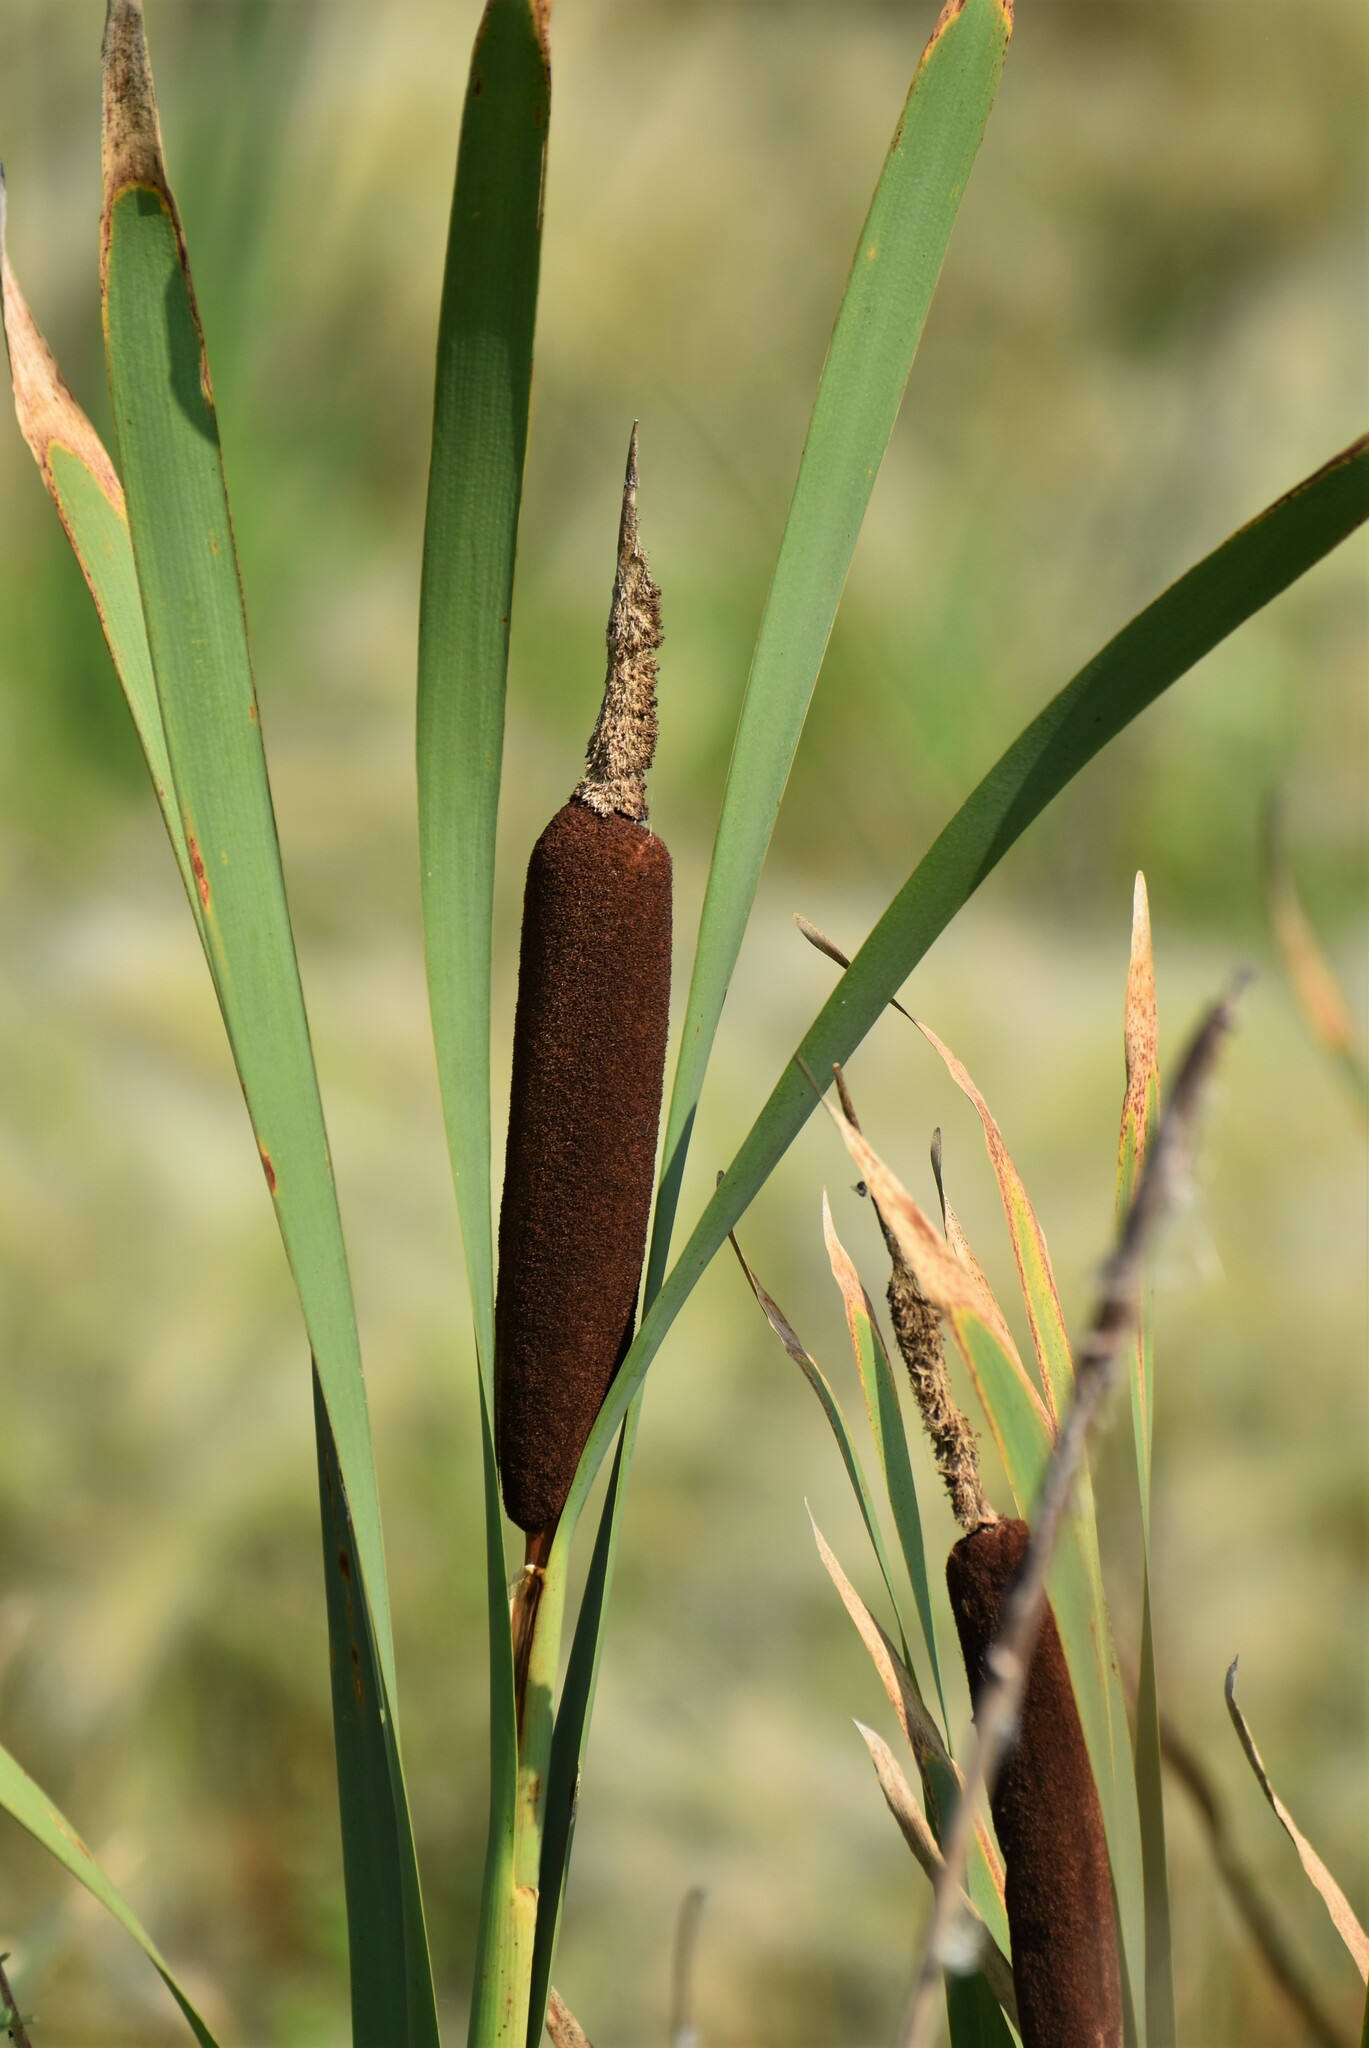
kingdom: Plantae
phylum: Tracheophyta
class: Liliopsida
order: Poales
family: Typhaceae
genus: Typha
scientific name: Typha latifolia
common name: Broadleaf cattail
